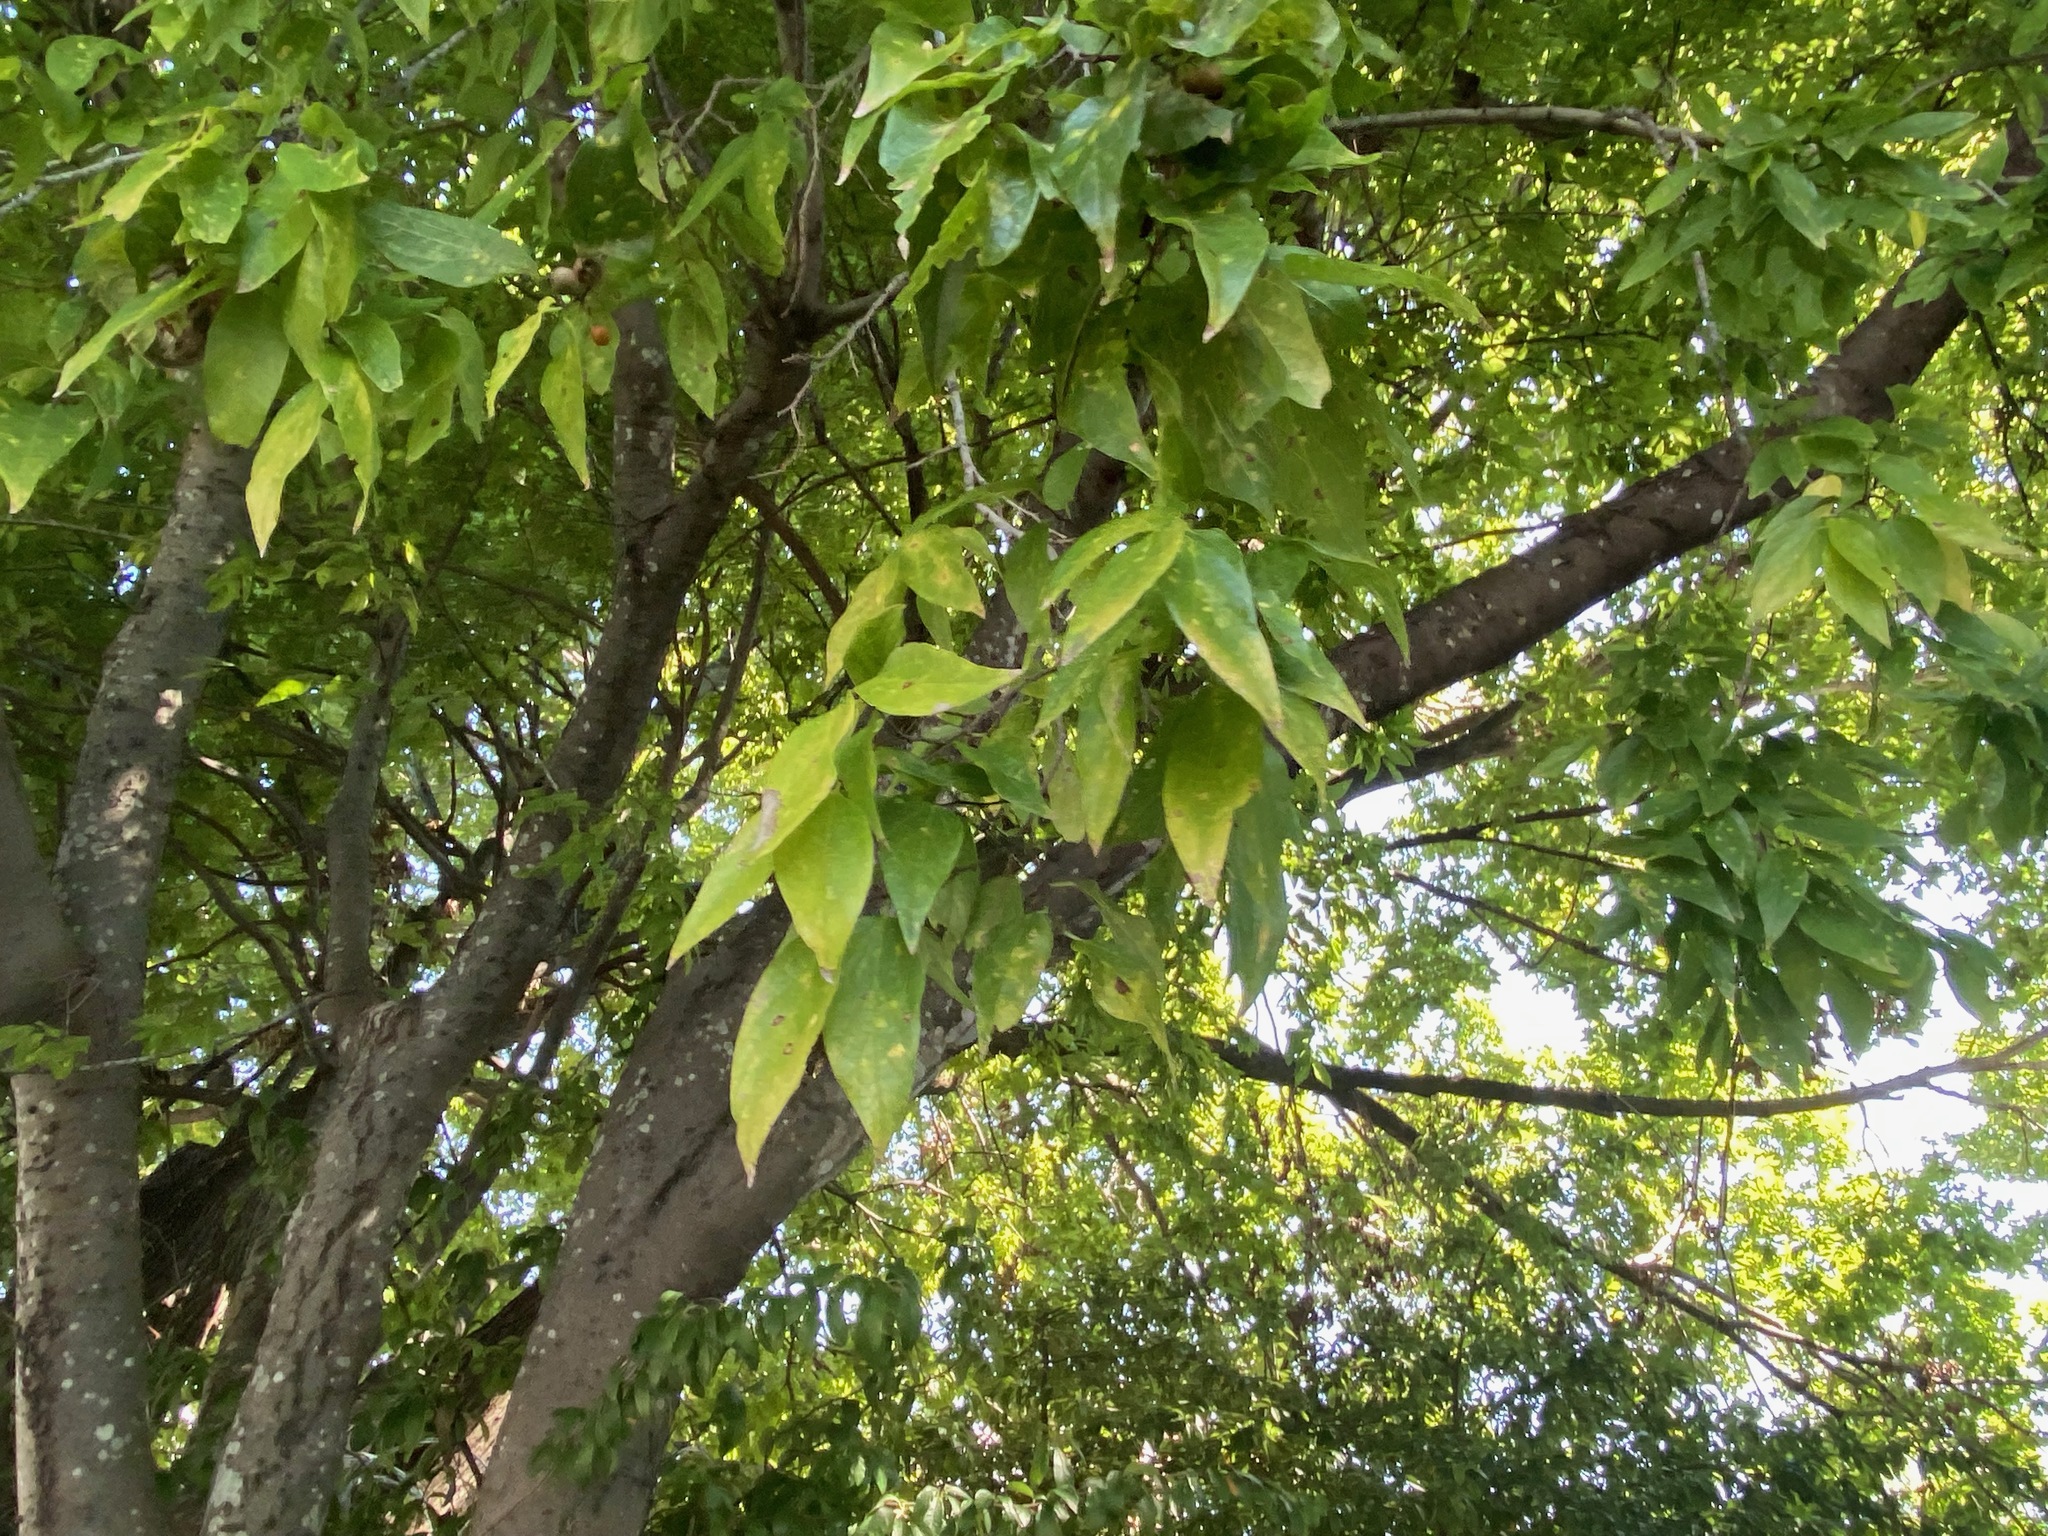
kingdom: Plantae
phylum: Tracheophyta
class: Magnoliopsida
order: Rosales
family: Cannabaceae
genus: Celtis
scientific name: Celtis laevigata
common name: Sugarberry
